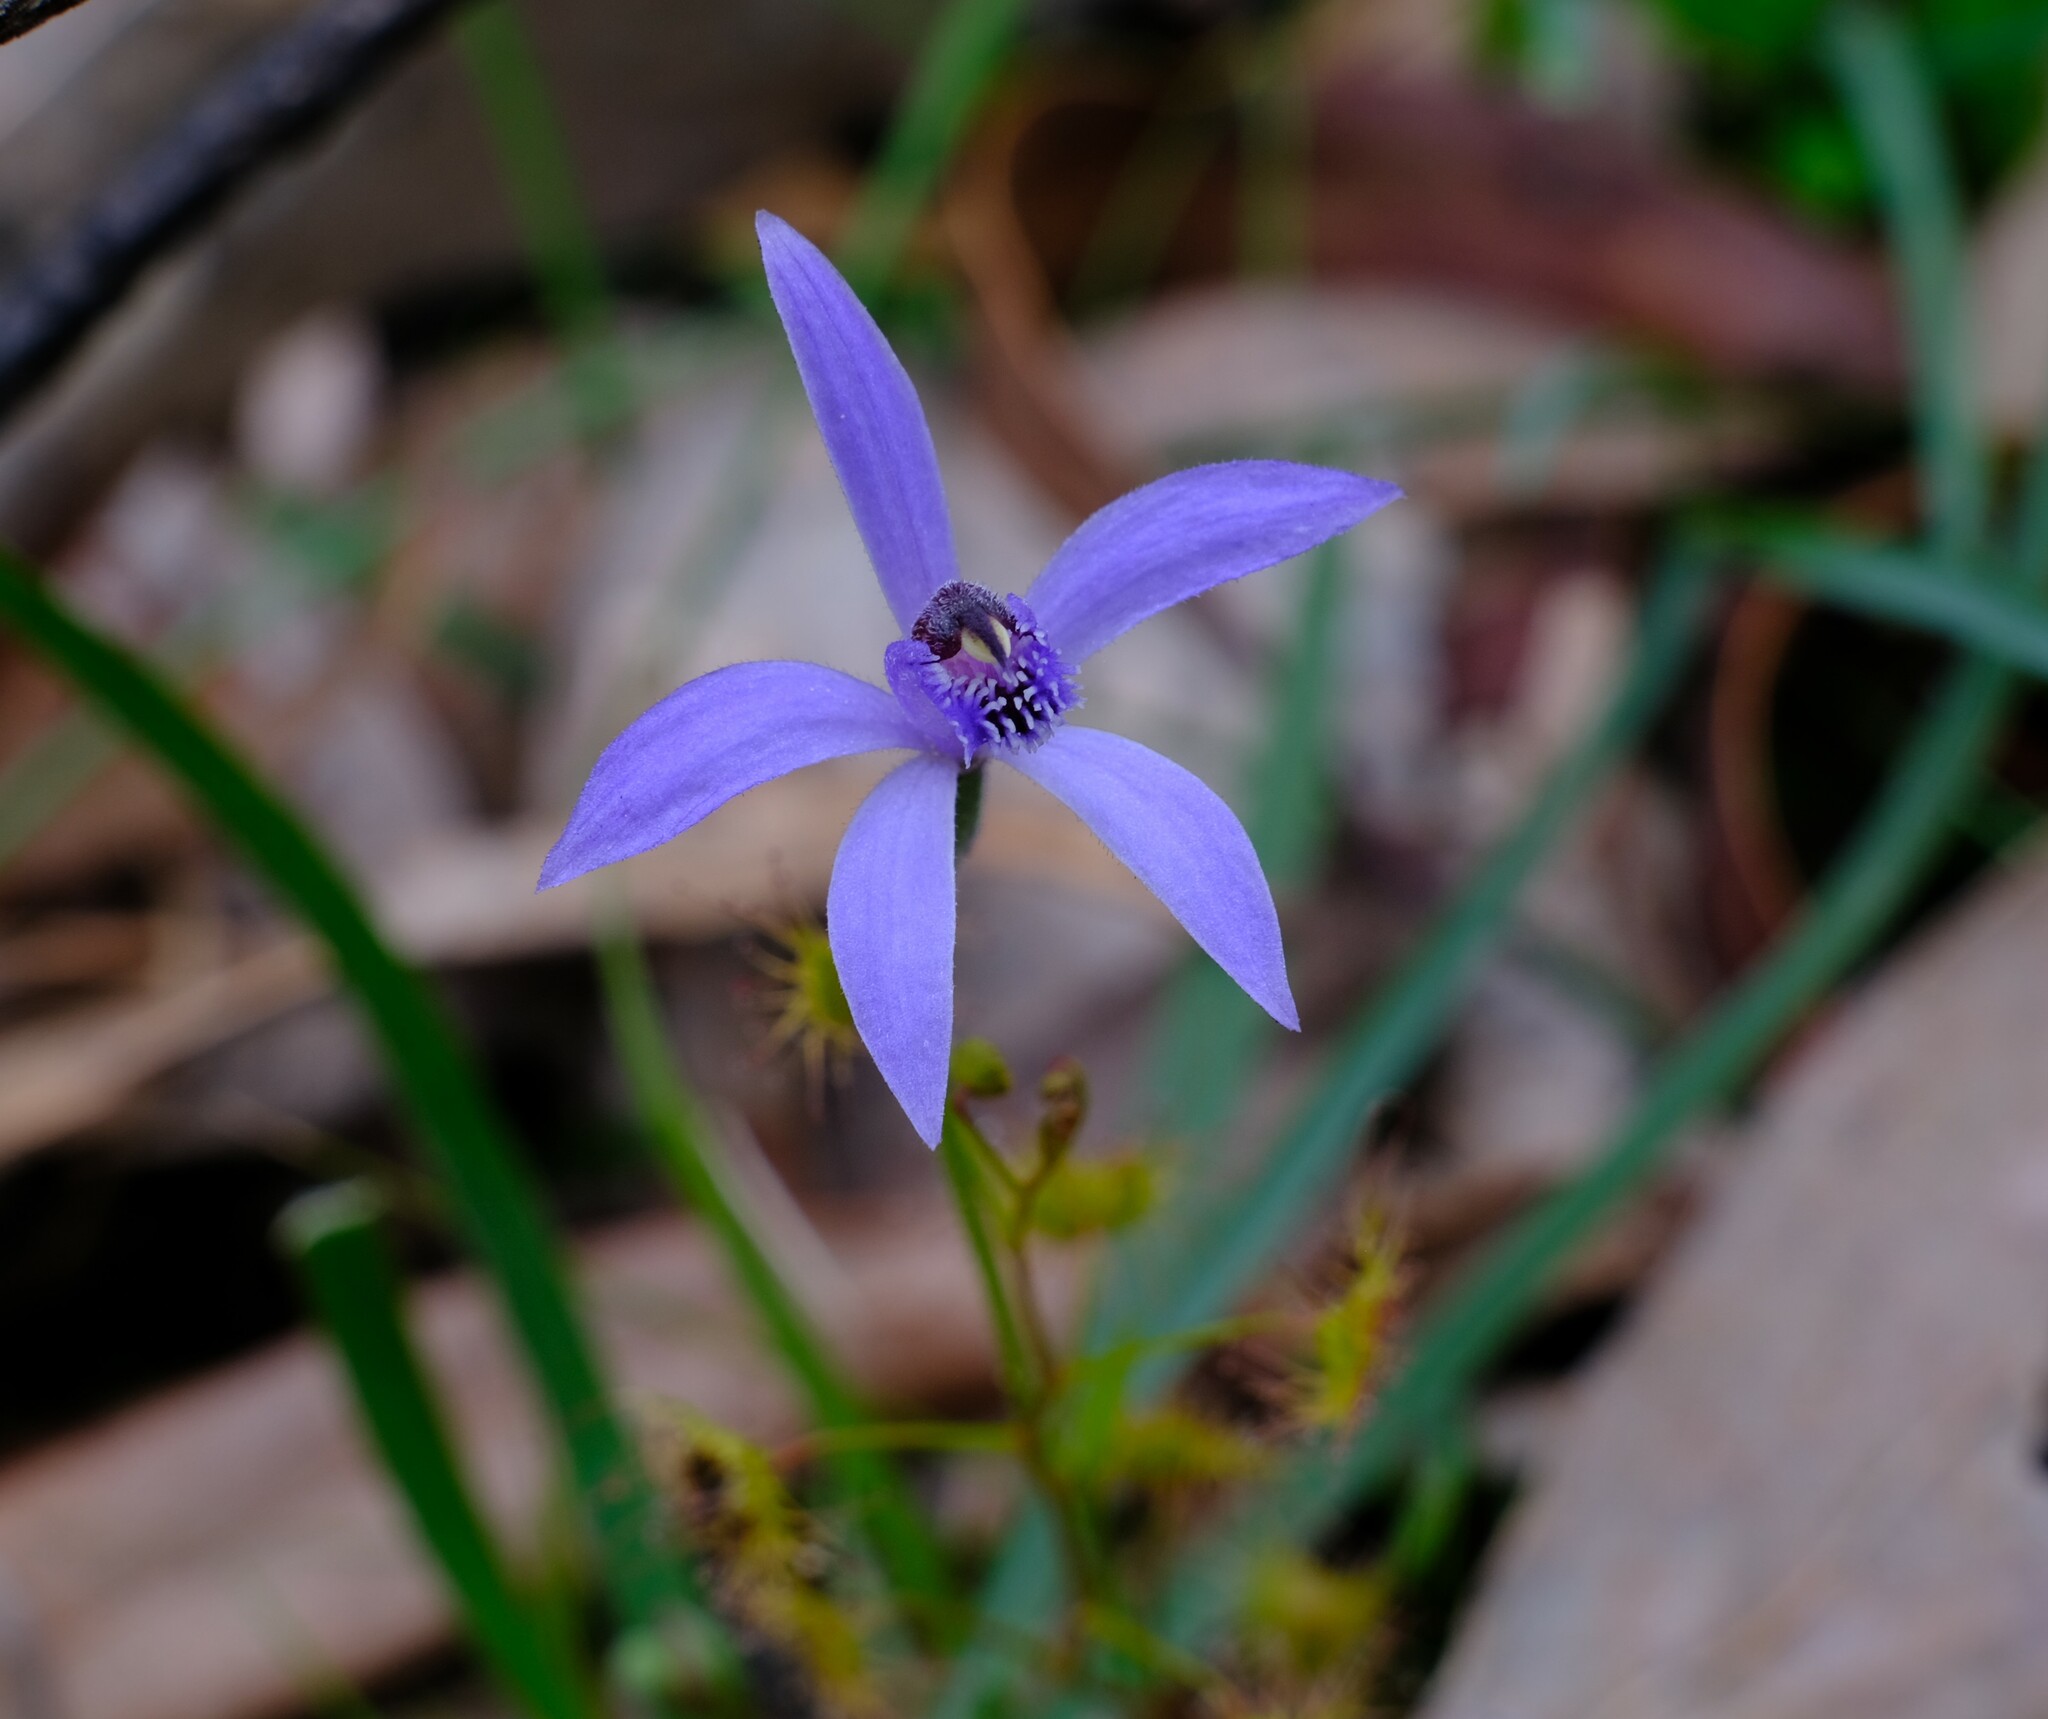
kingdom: Plantae
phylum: Tracheophyta
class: Liliopsida
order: Asparagales
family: Orchidaceae
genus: Pheladenia
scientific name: Pheladenia deformis
